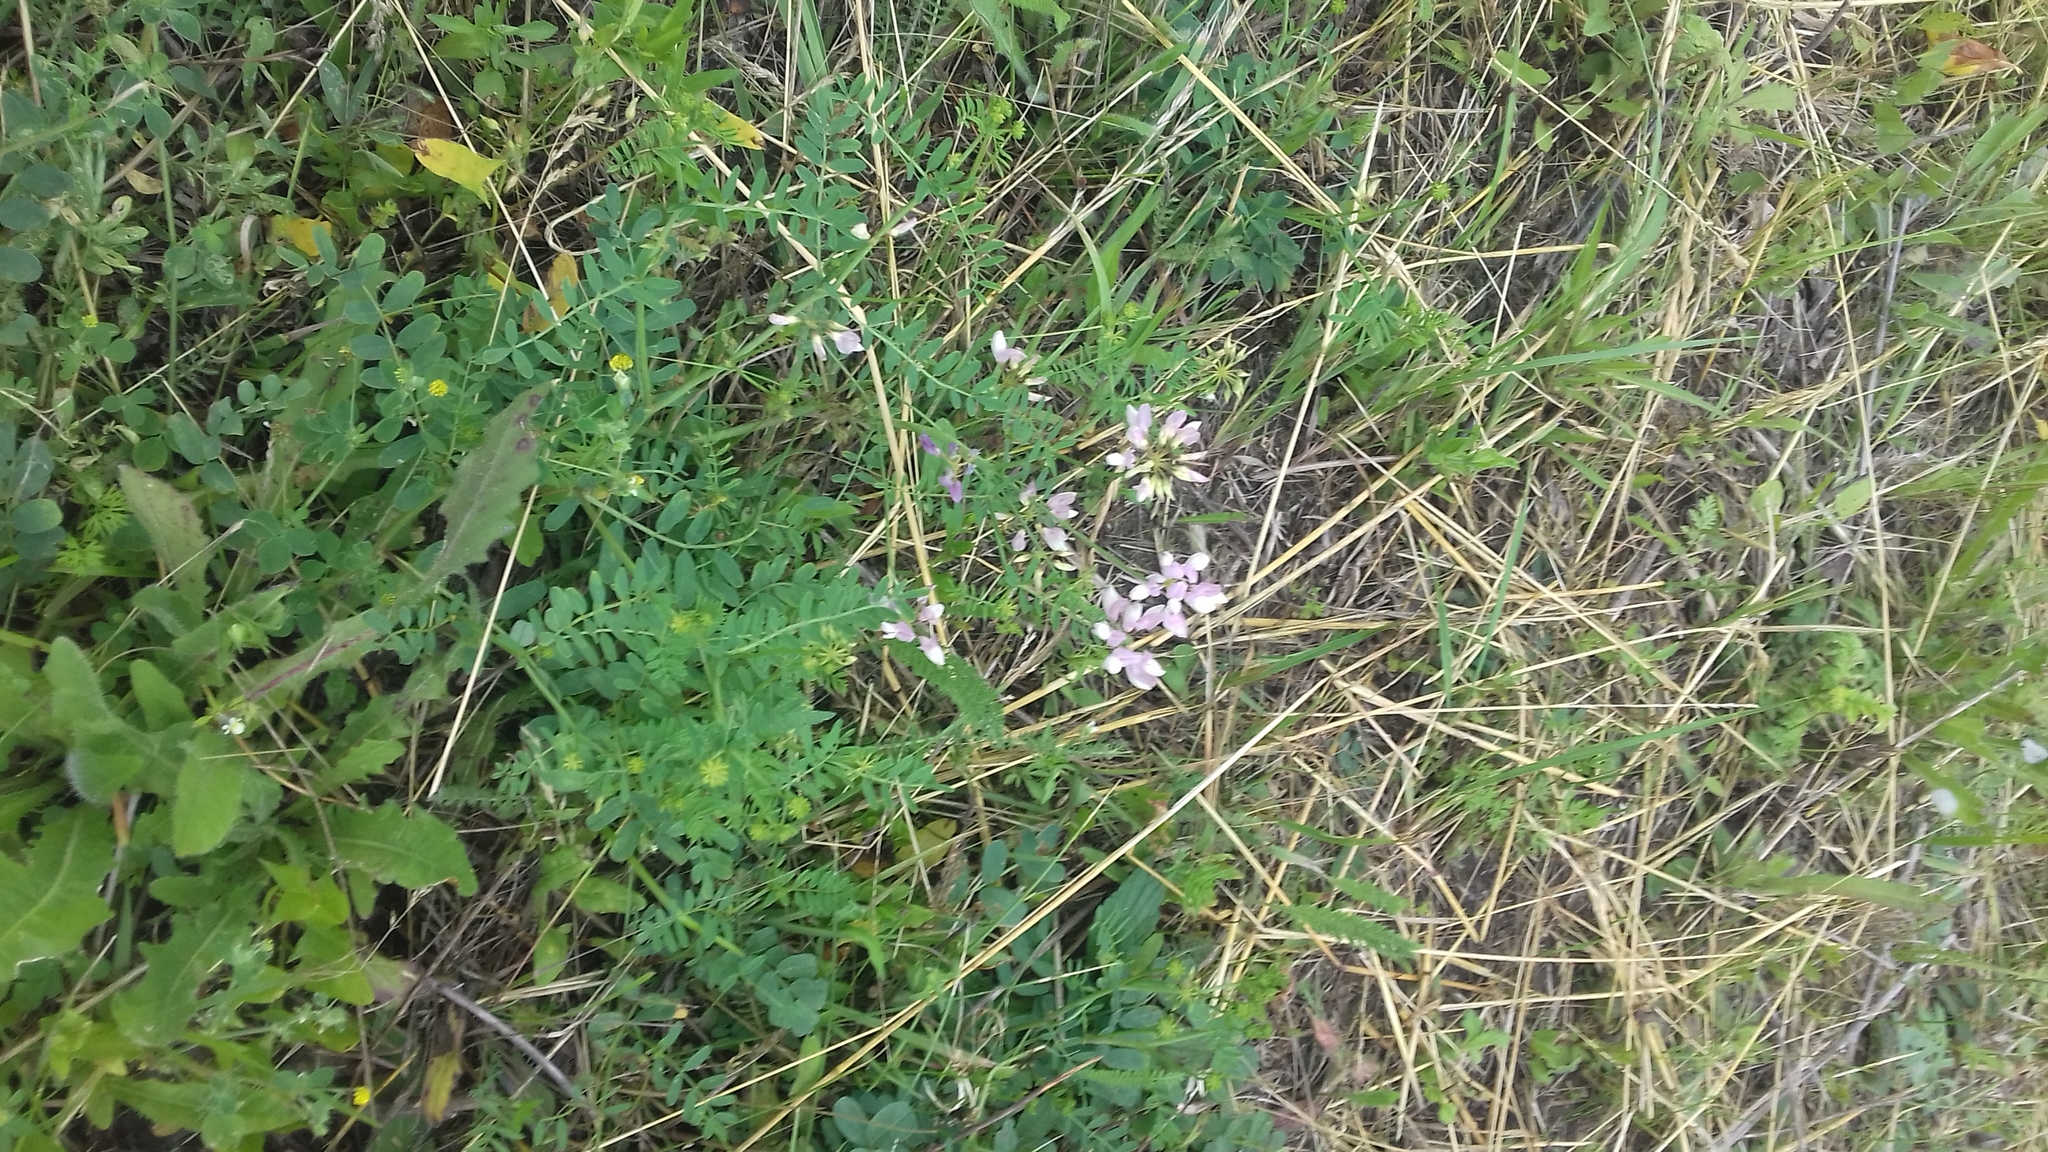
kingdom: Plantae
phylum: Tracheophyta
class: Magnoliopsida
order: Fabales
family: Fabaceae
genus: Coronilla
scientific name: Coronilla varia
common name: Crownvetch
